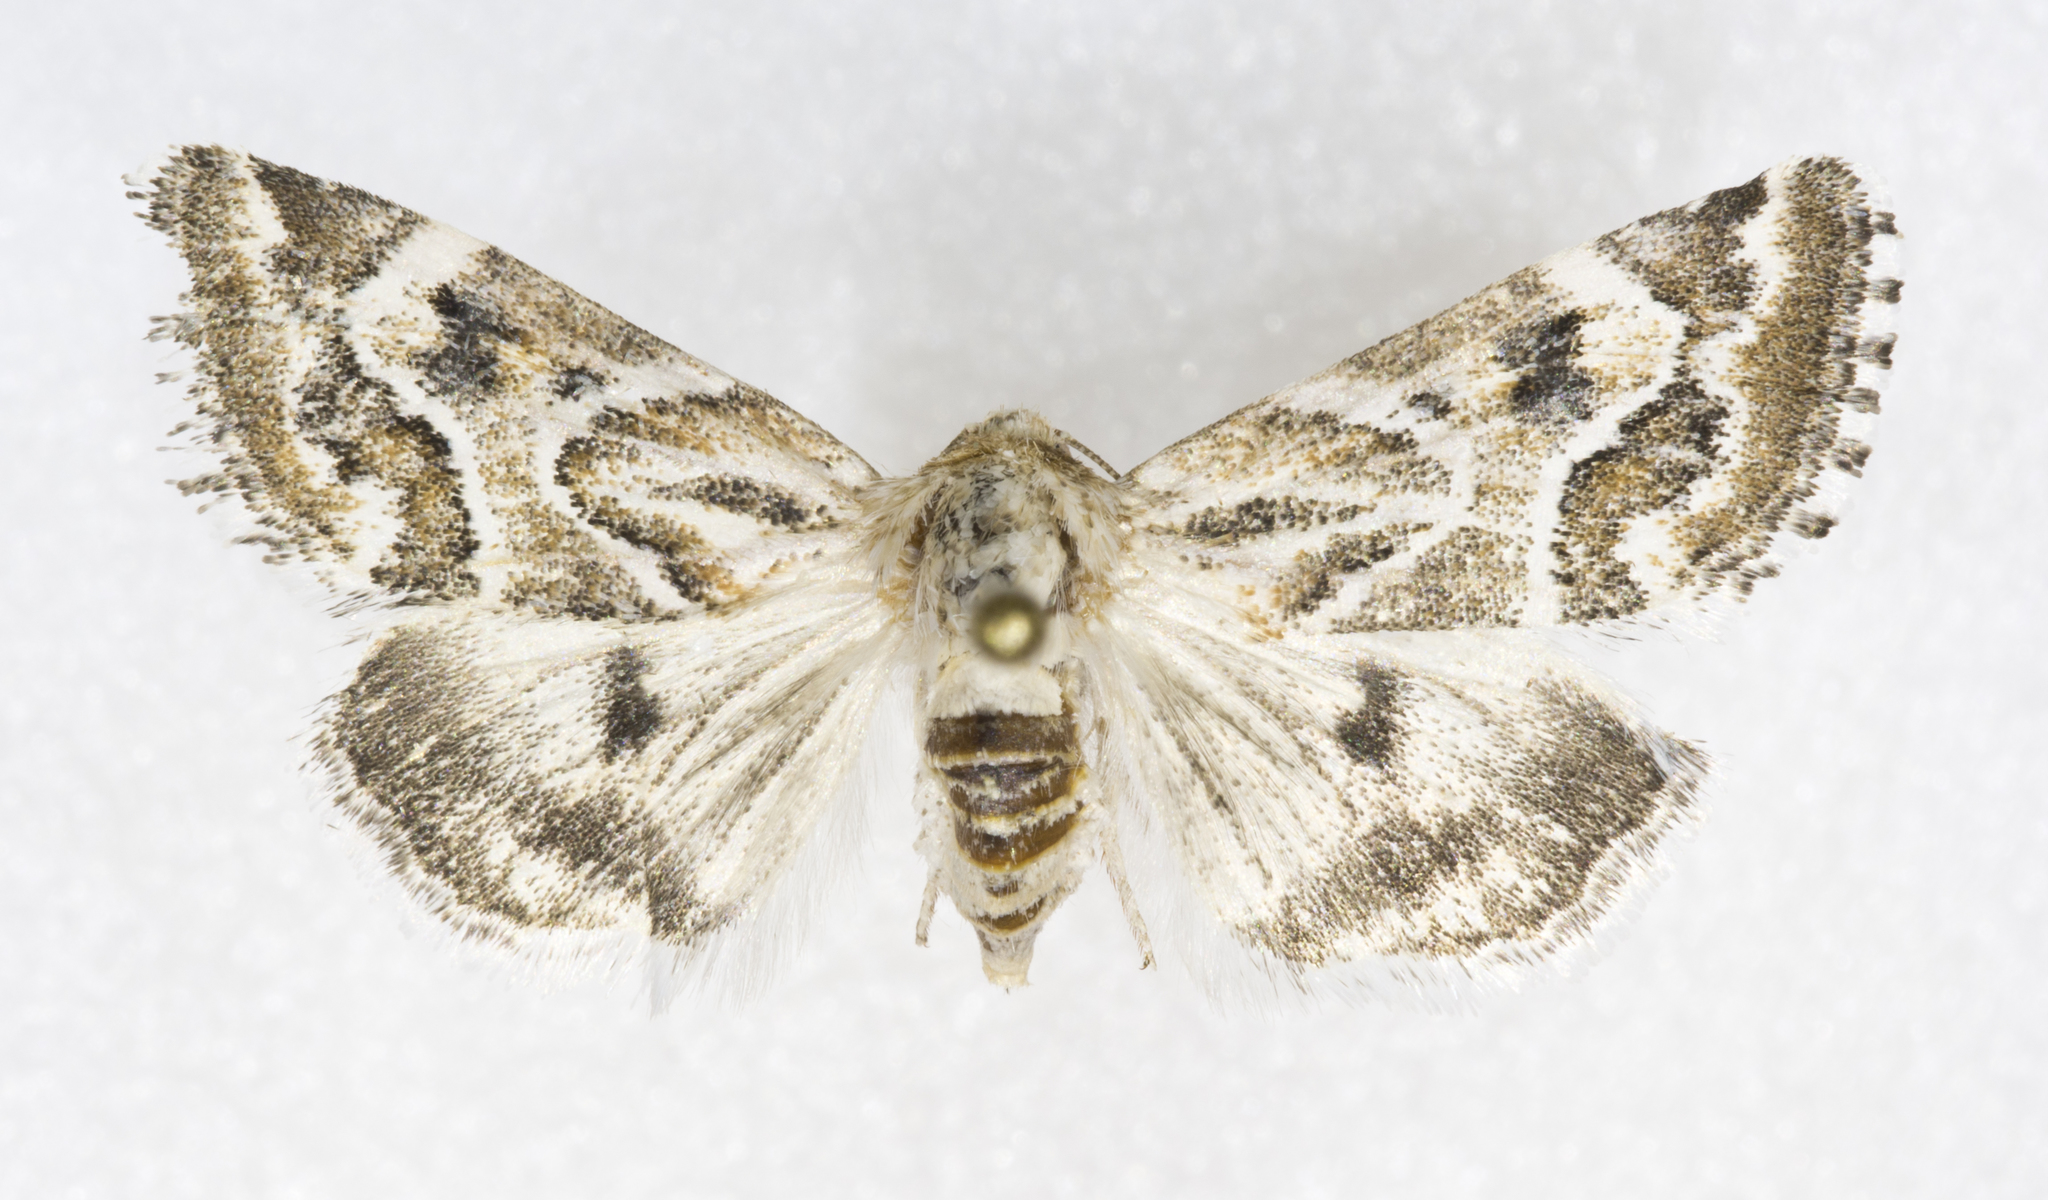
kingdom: Animalia
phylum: Arthropoda
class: Insecta
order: Lepidoptera
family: Noctuidae
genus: Schinia
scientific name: Schinia acutilinea
